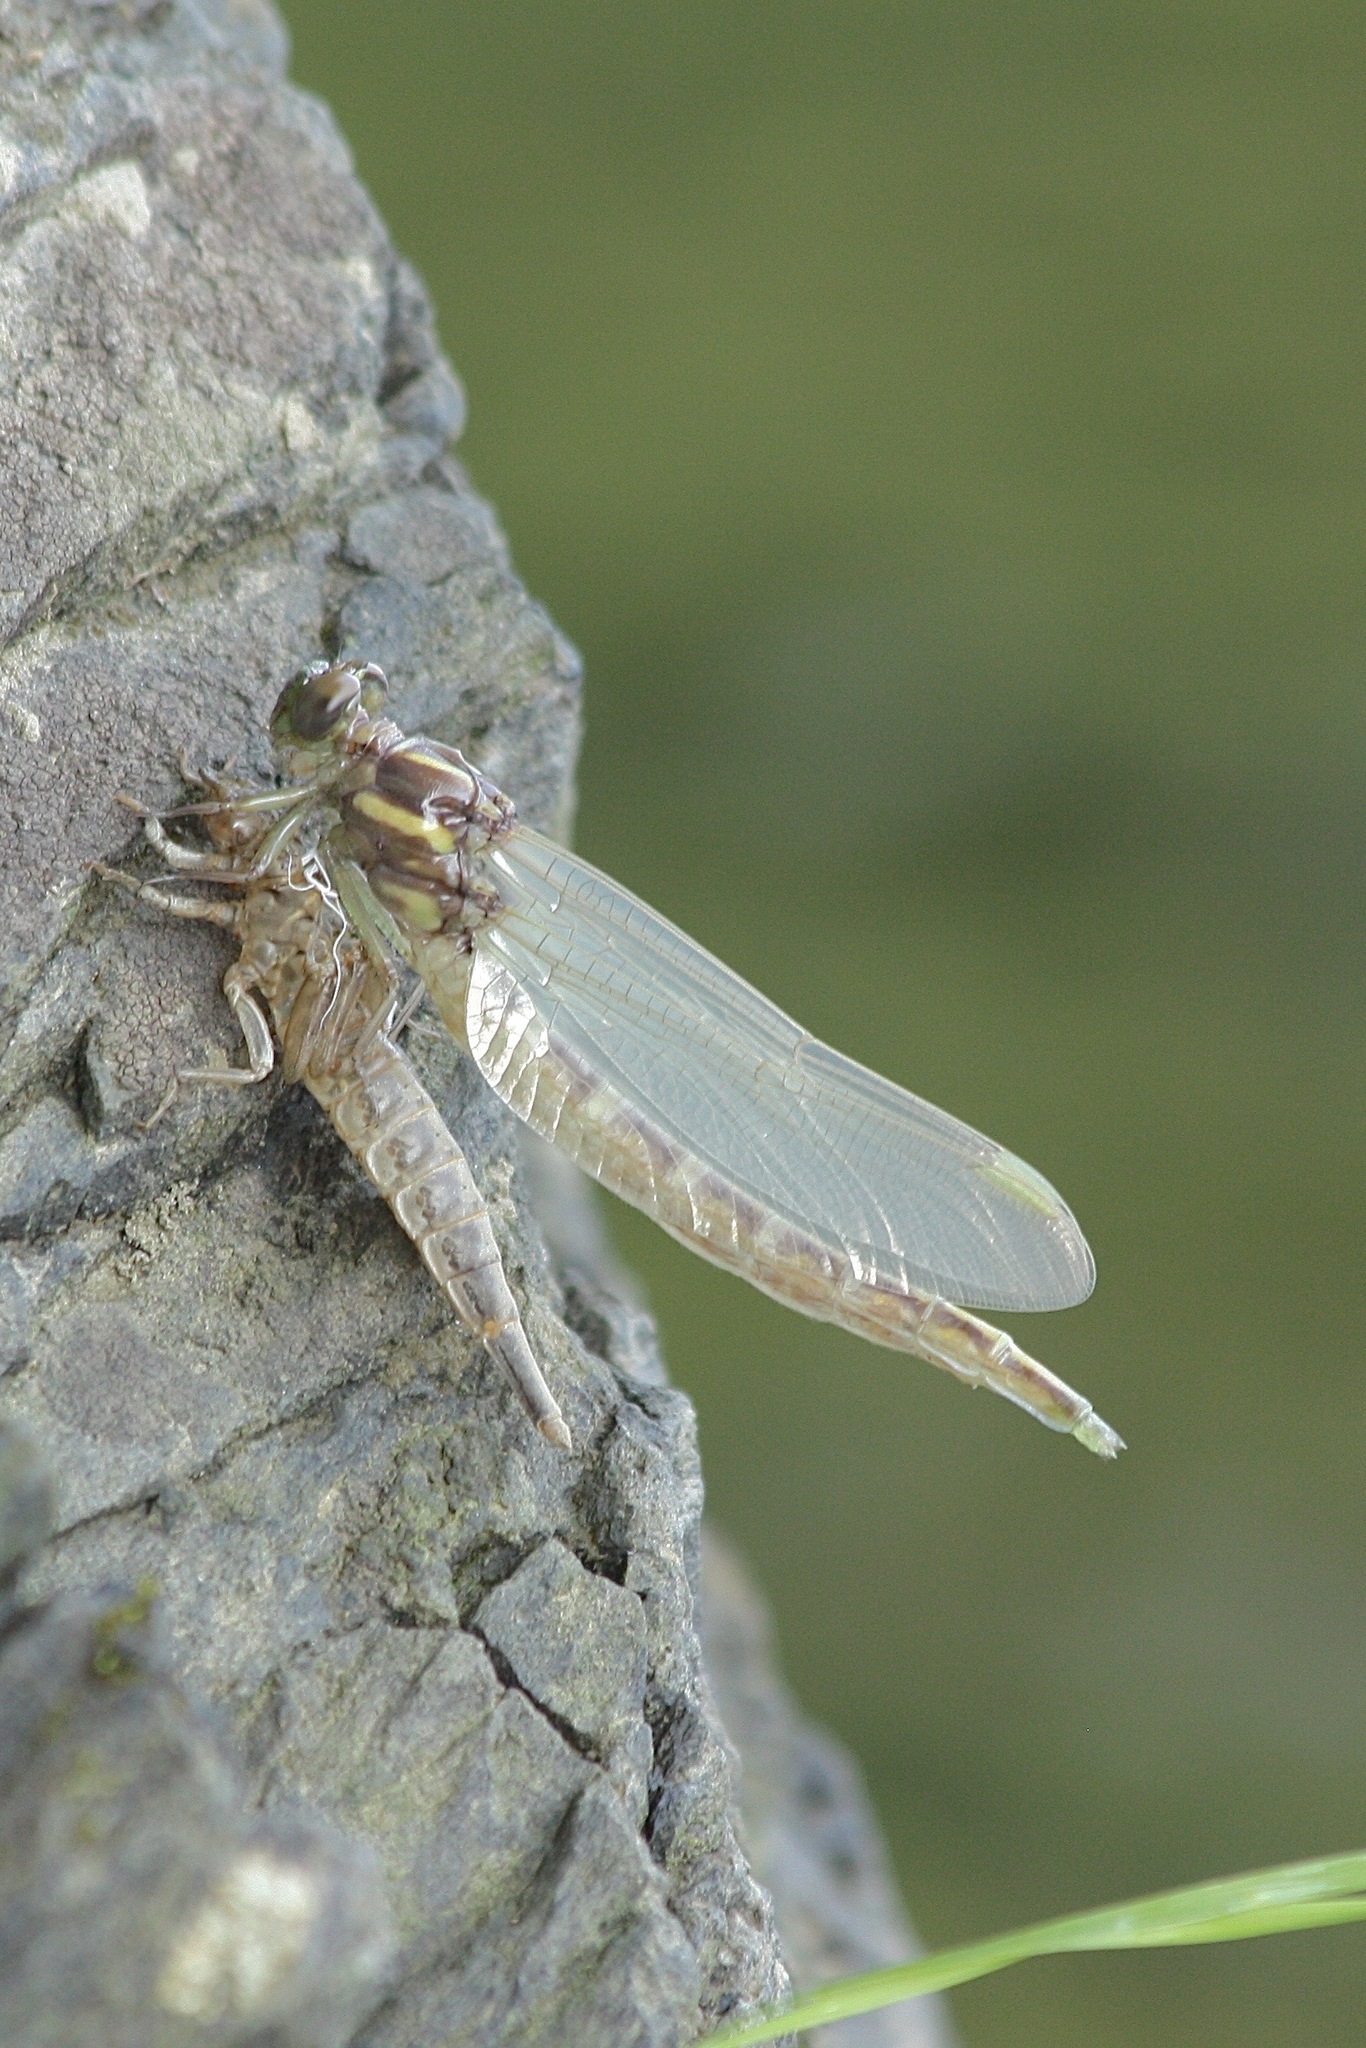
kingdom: Animalia
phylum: Arthropoda
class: Insecta
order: Odonata
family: Gomphidae
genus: Stylurus
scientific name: Stylurus spiniceps
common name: Arrow clubtail
